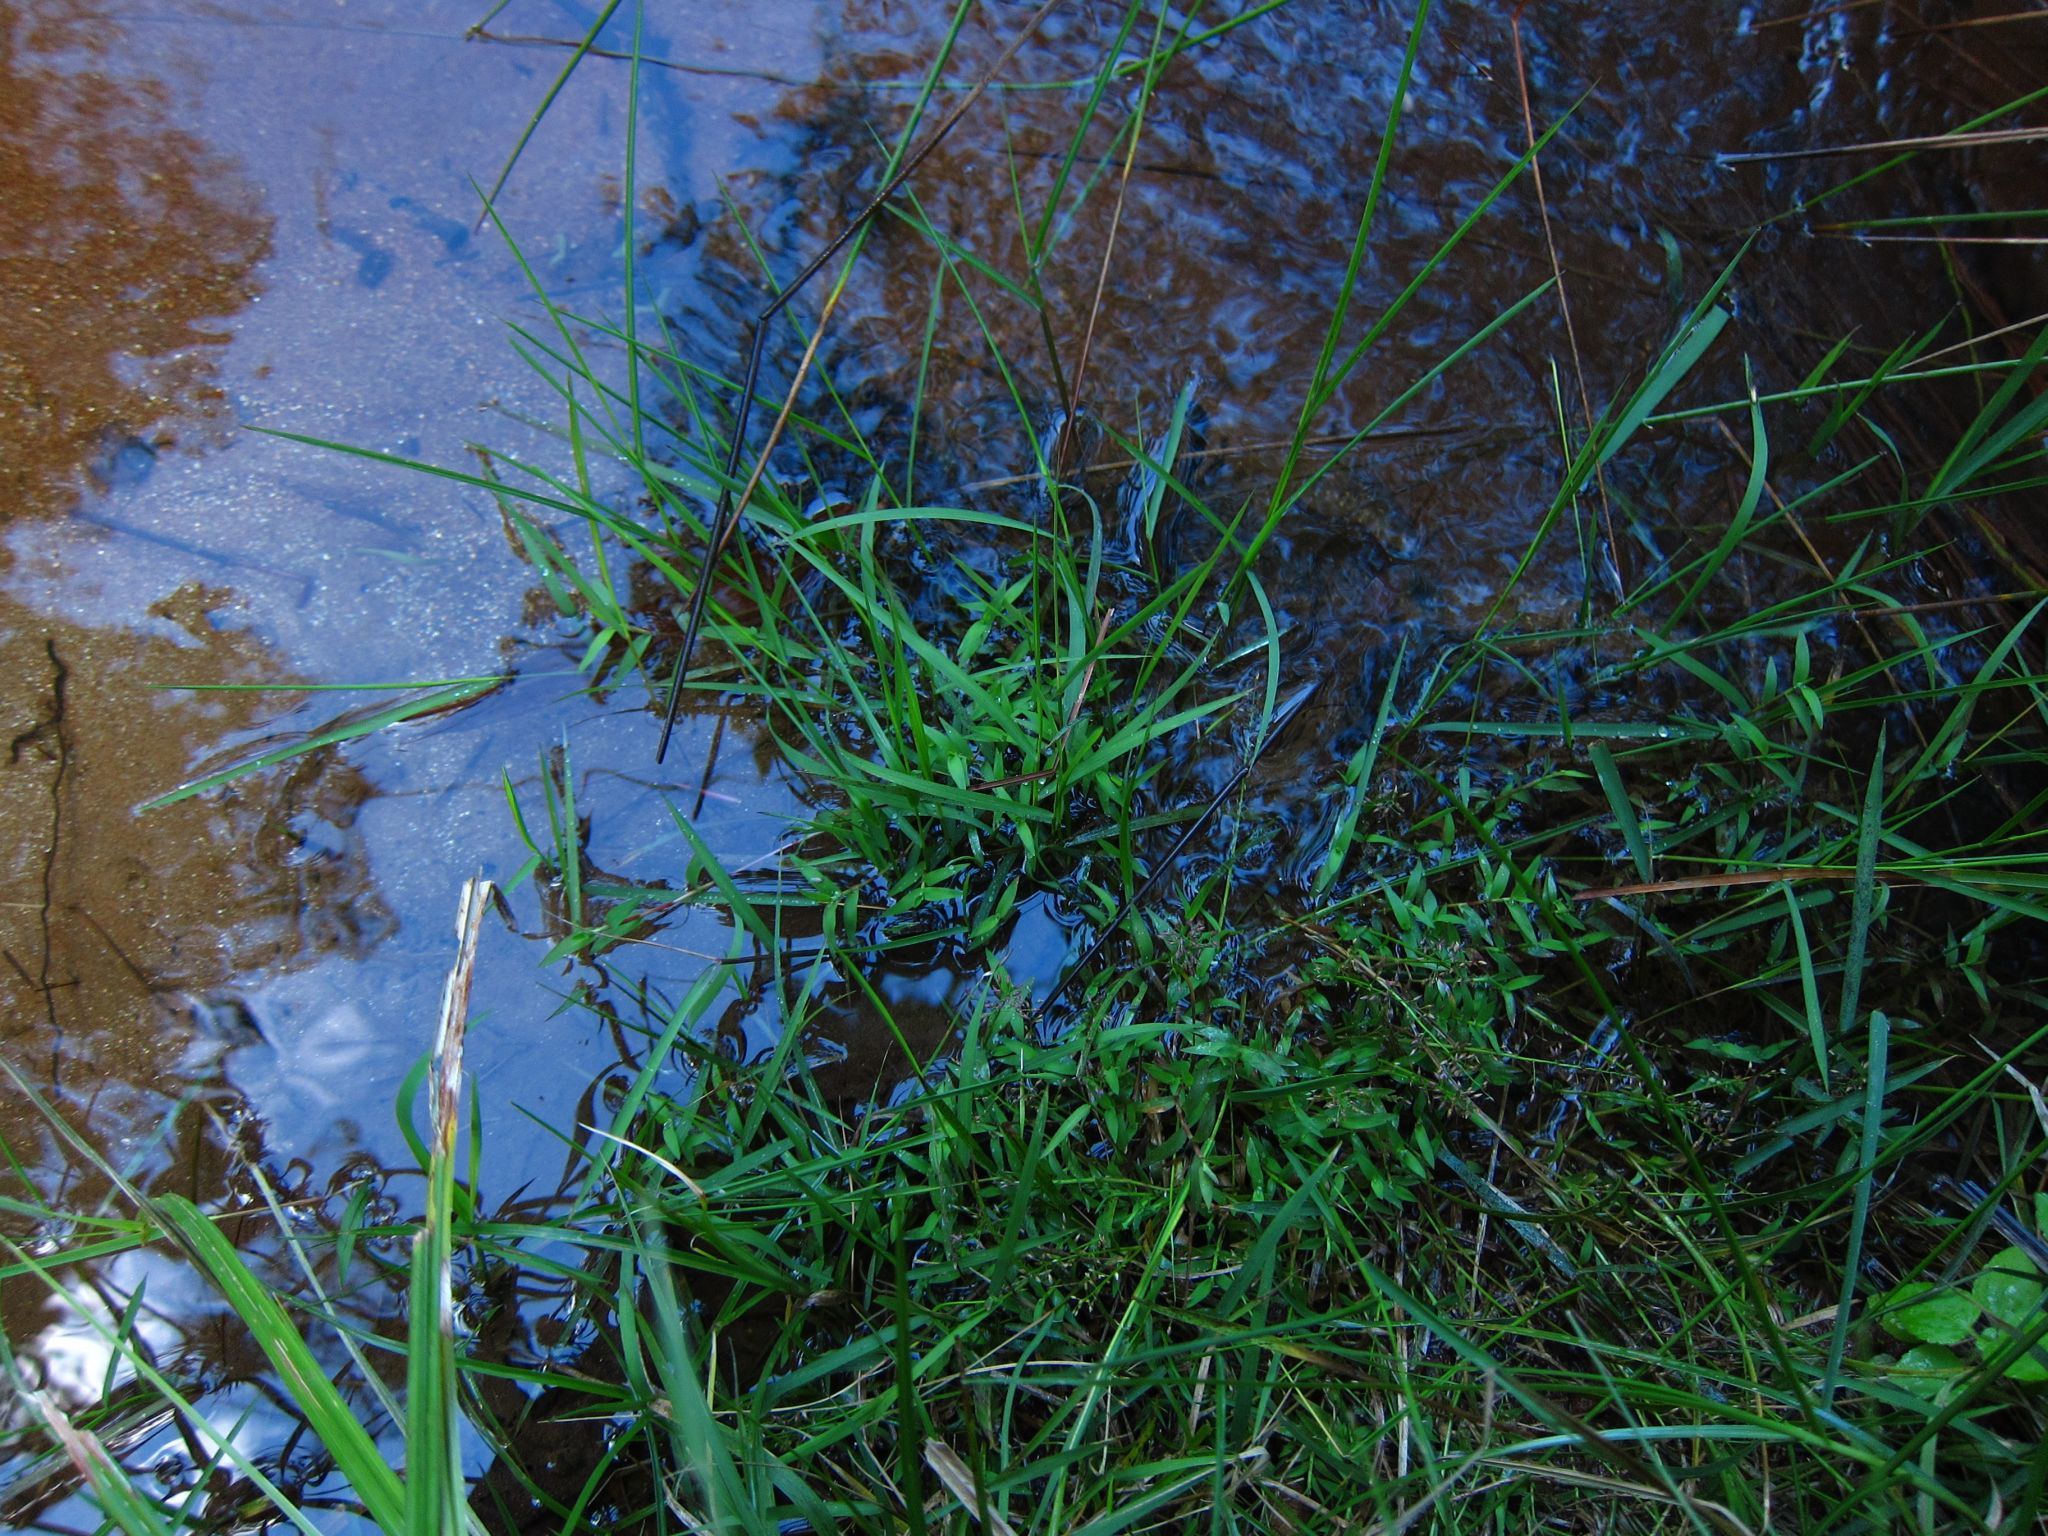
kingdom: Plantae
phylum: Tracheophyta
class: Liliopsida
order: Poales
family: Poaceae
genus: Coelachne
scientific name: Coelachne africana
